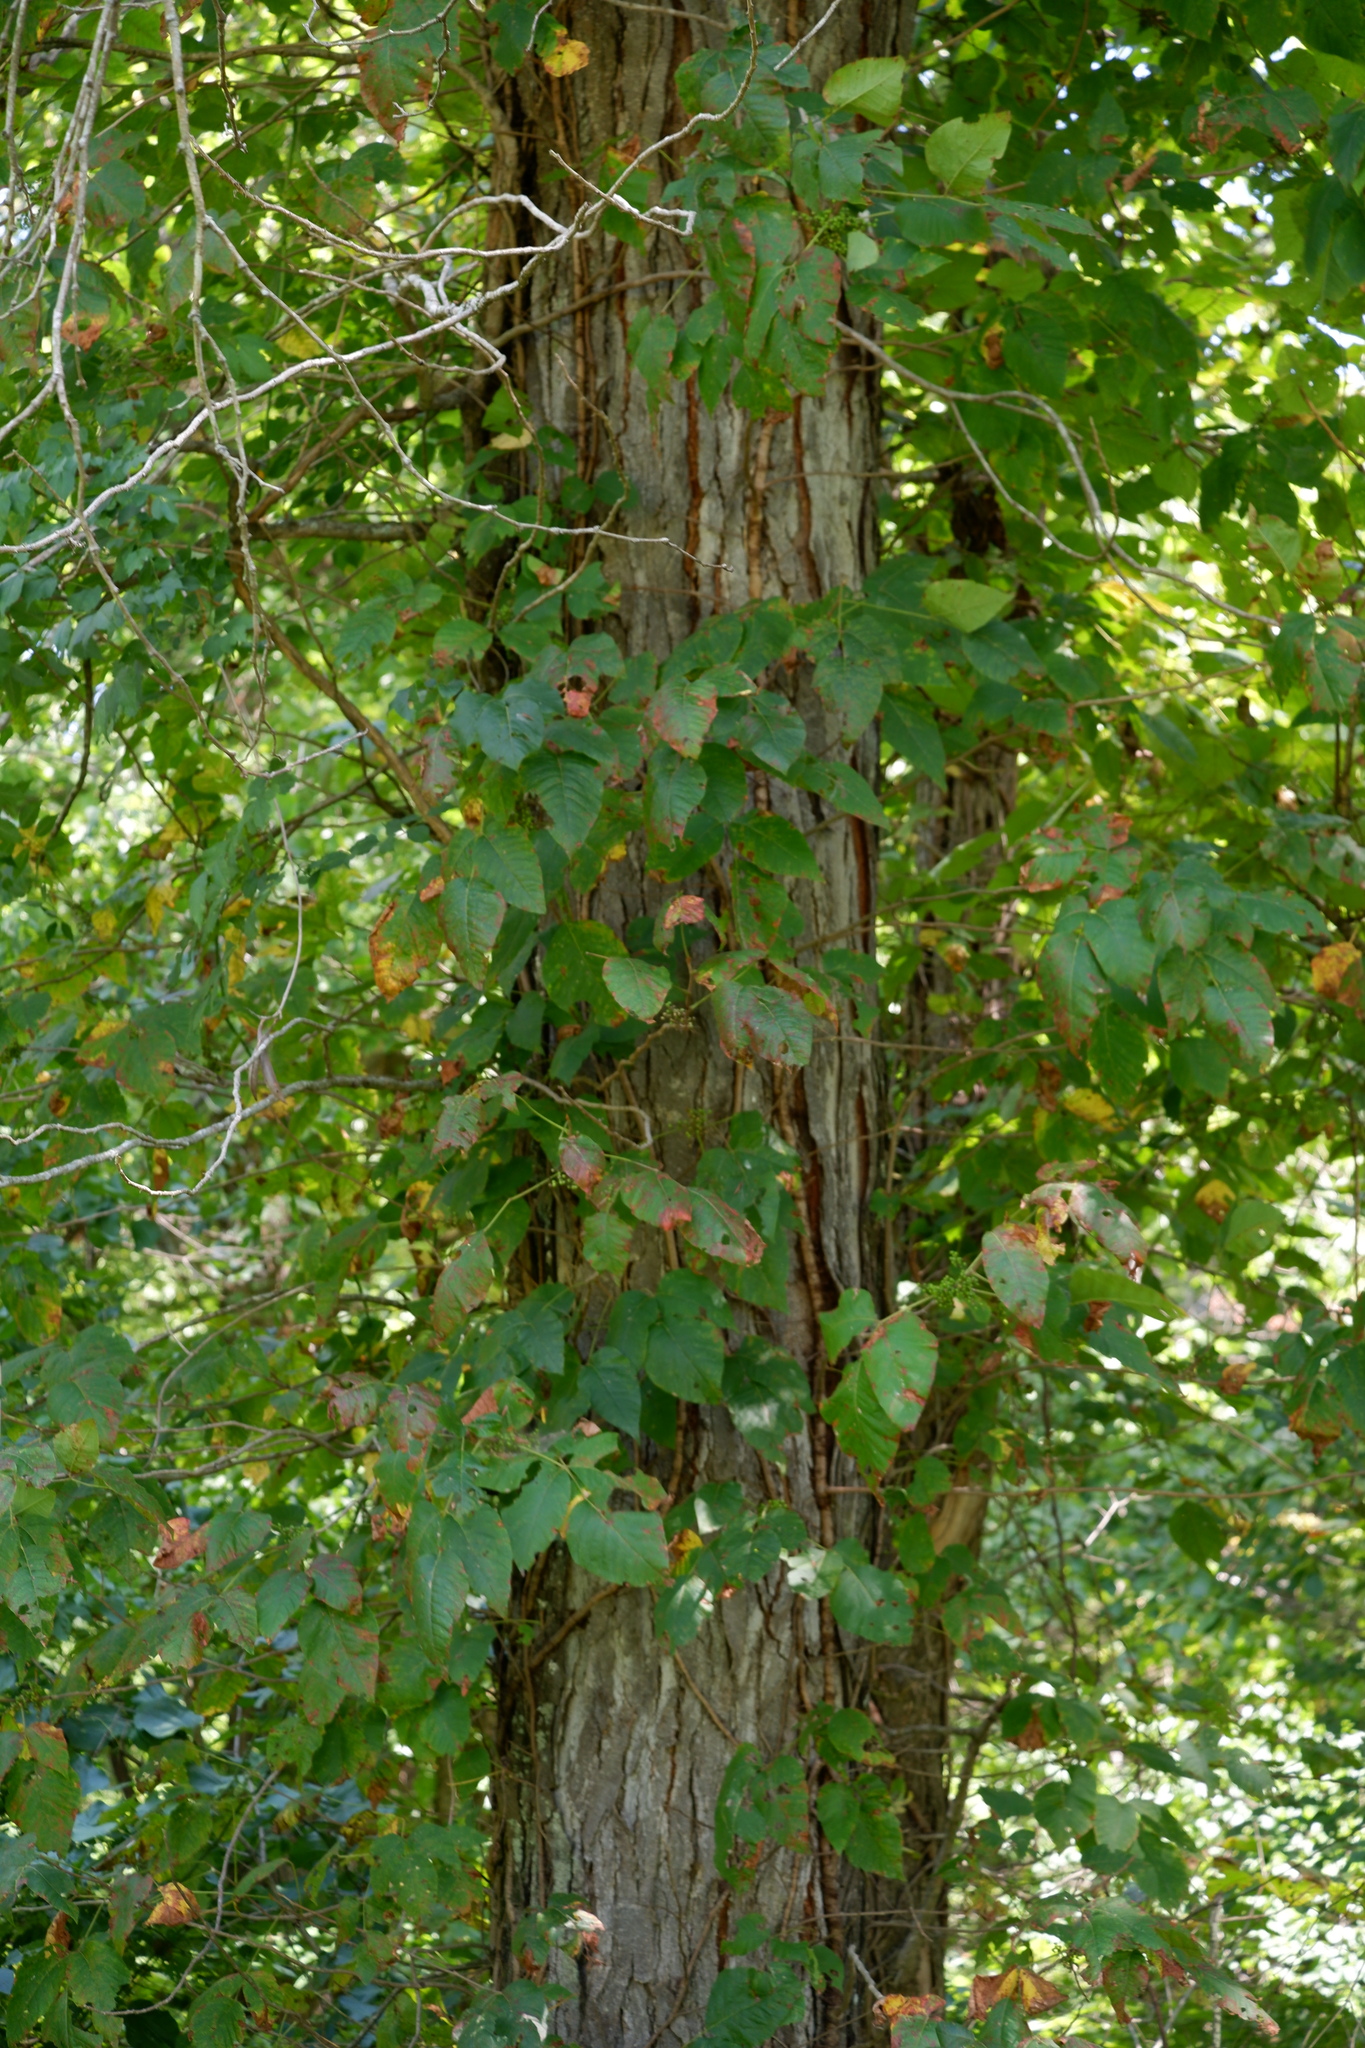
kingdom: Plantae
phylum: Tracheophyta
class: Magnoliopsida
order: Sapindales
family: Anacardiaceae
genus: Toxicodendron
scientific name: Toxicodendron radicans
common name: Poison ivy
